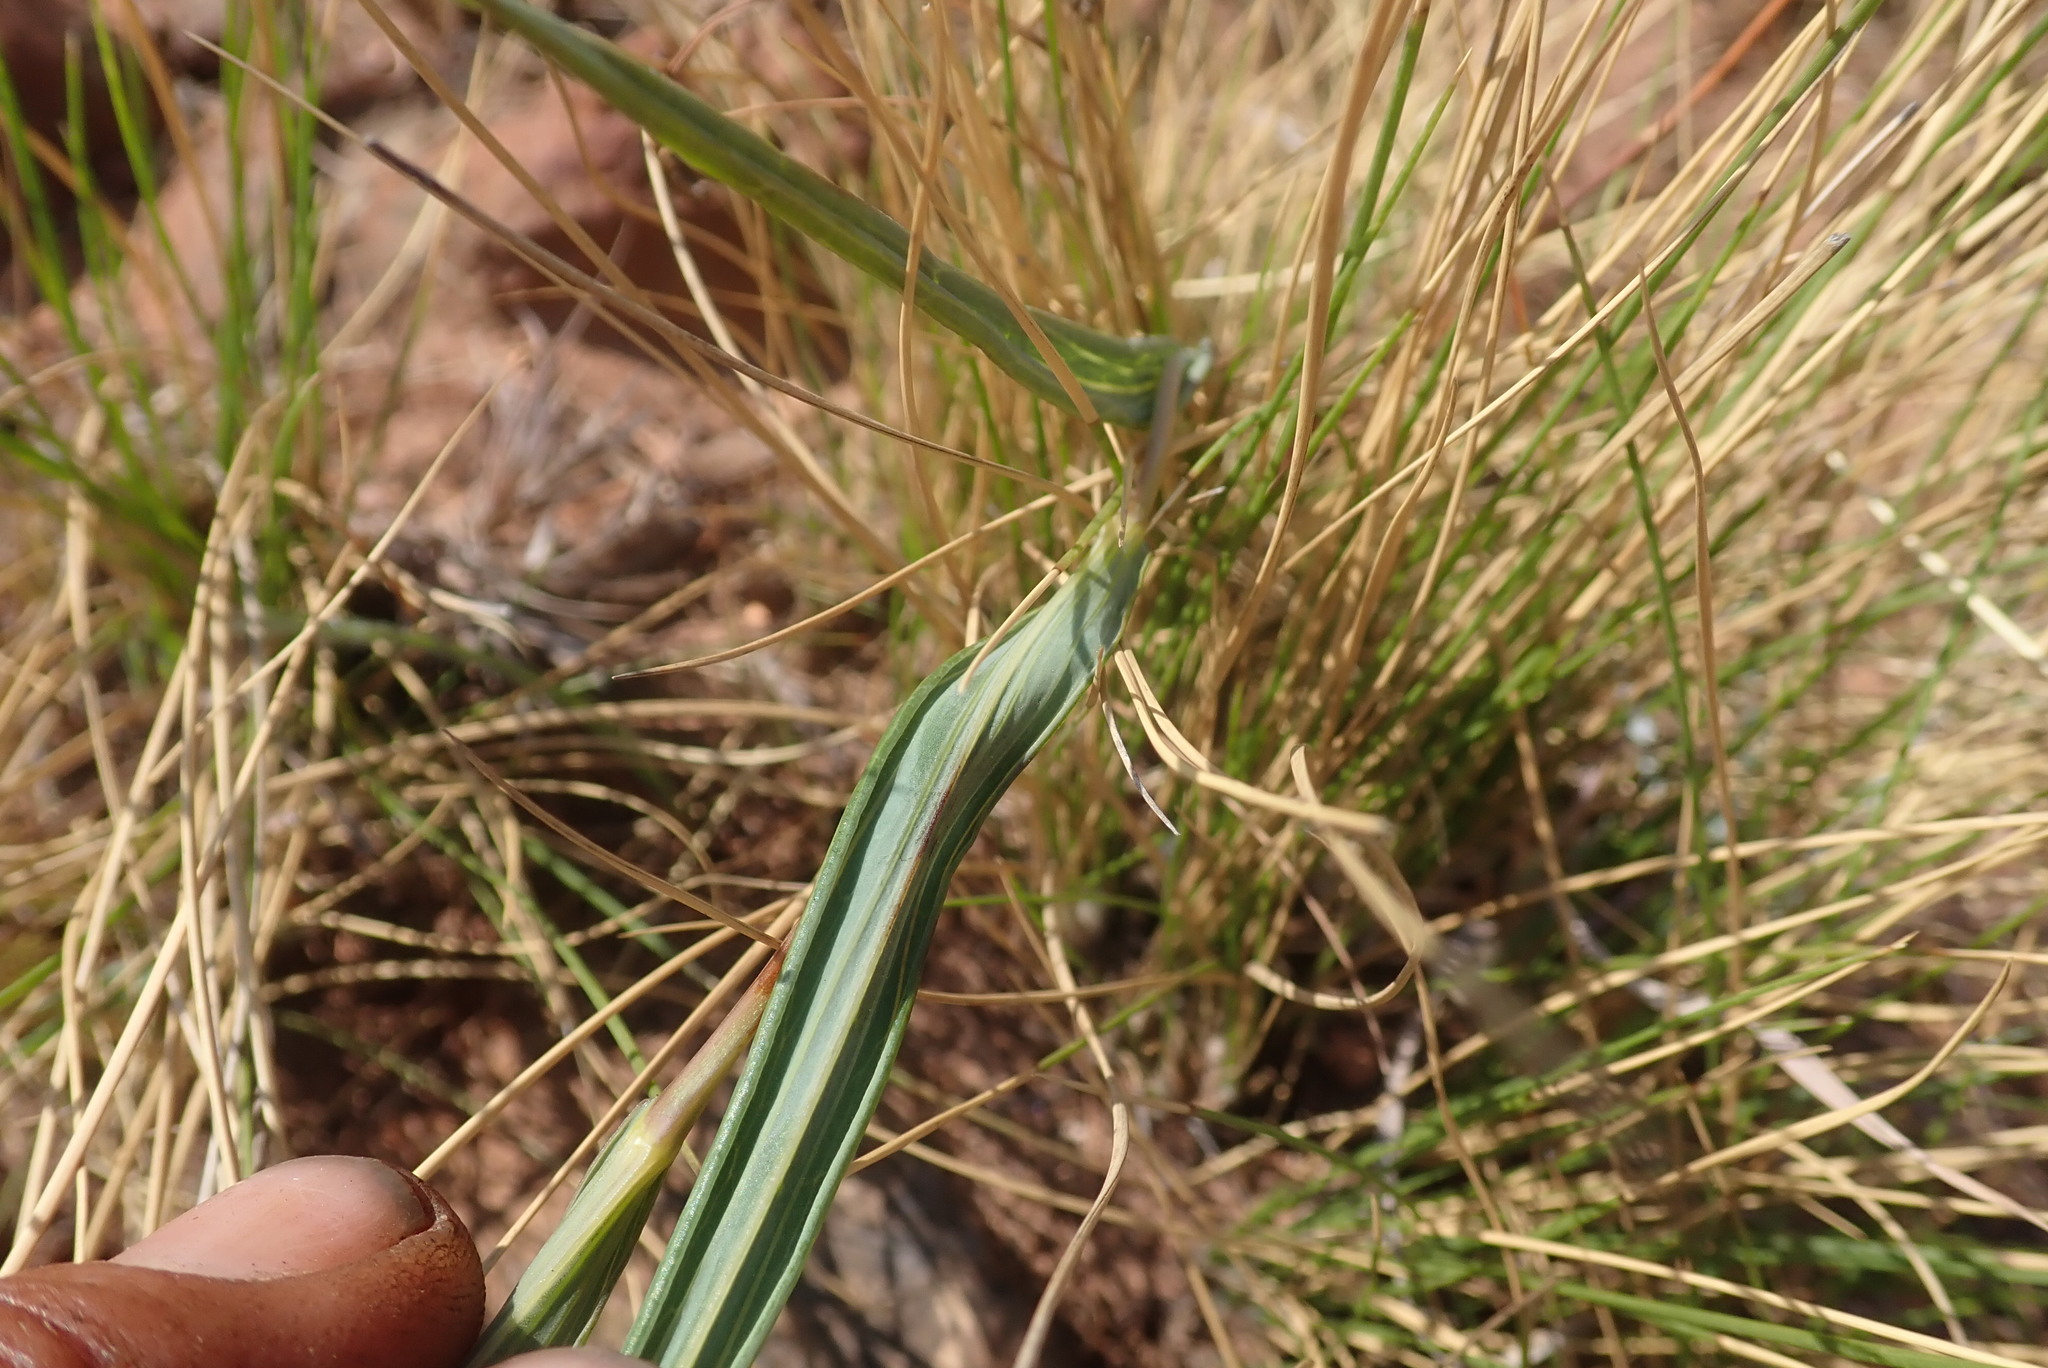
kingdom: Plantae
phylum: Tracheophyta
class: Magnoliopsida
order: Asterales
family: Asteraceae
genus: Senecio
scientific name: Senecio scitus
